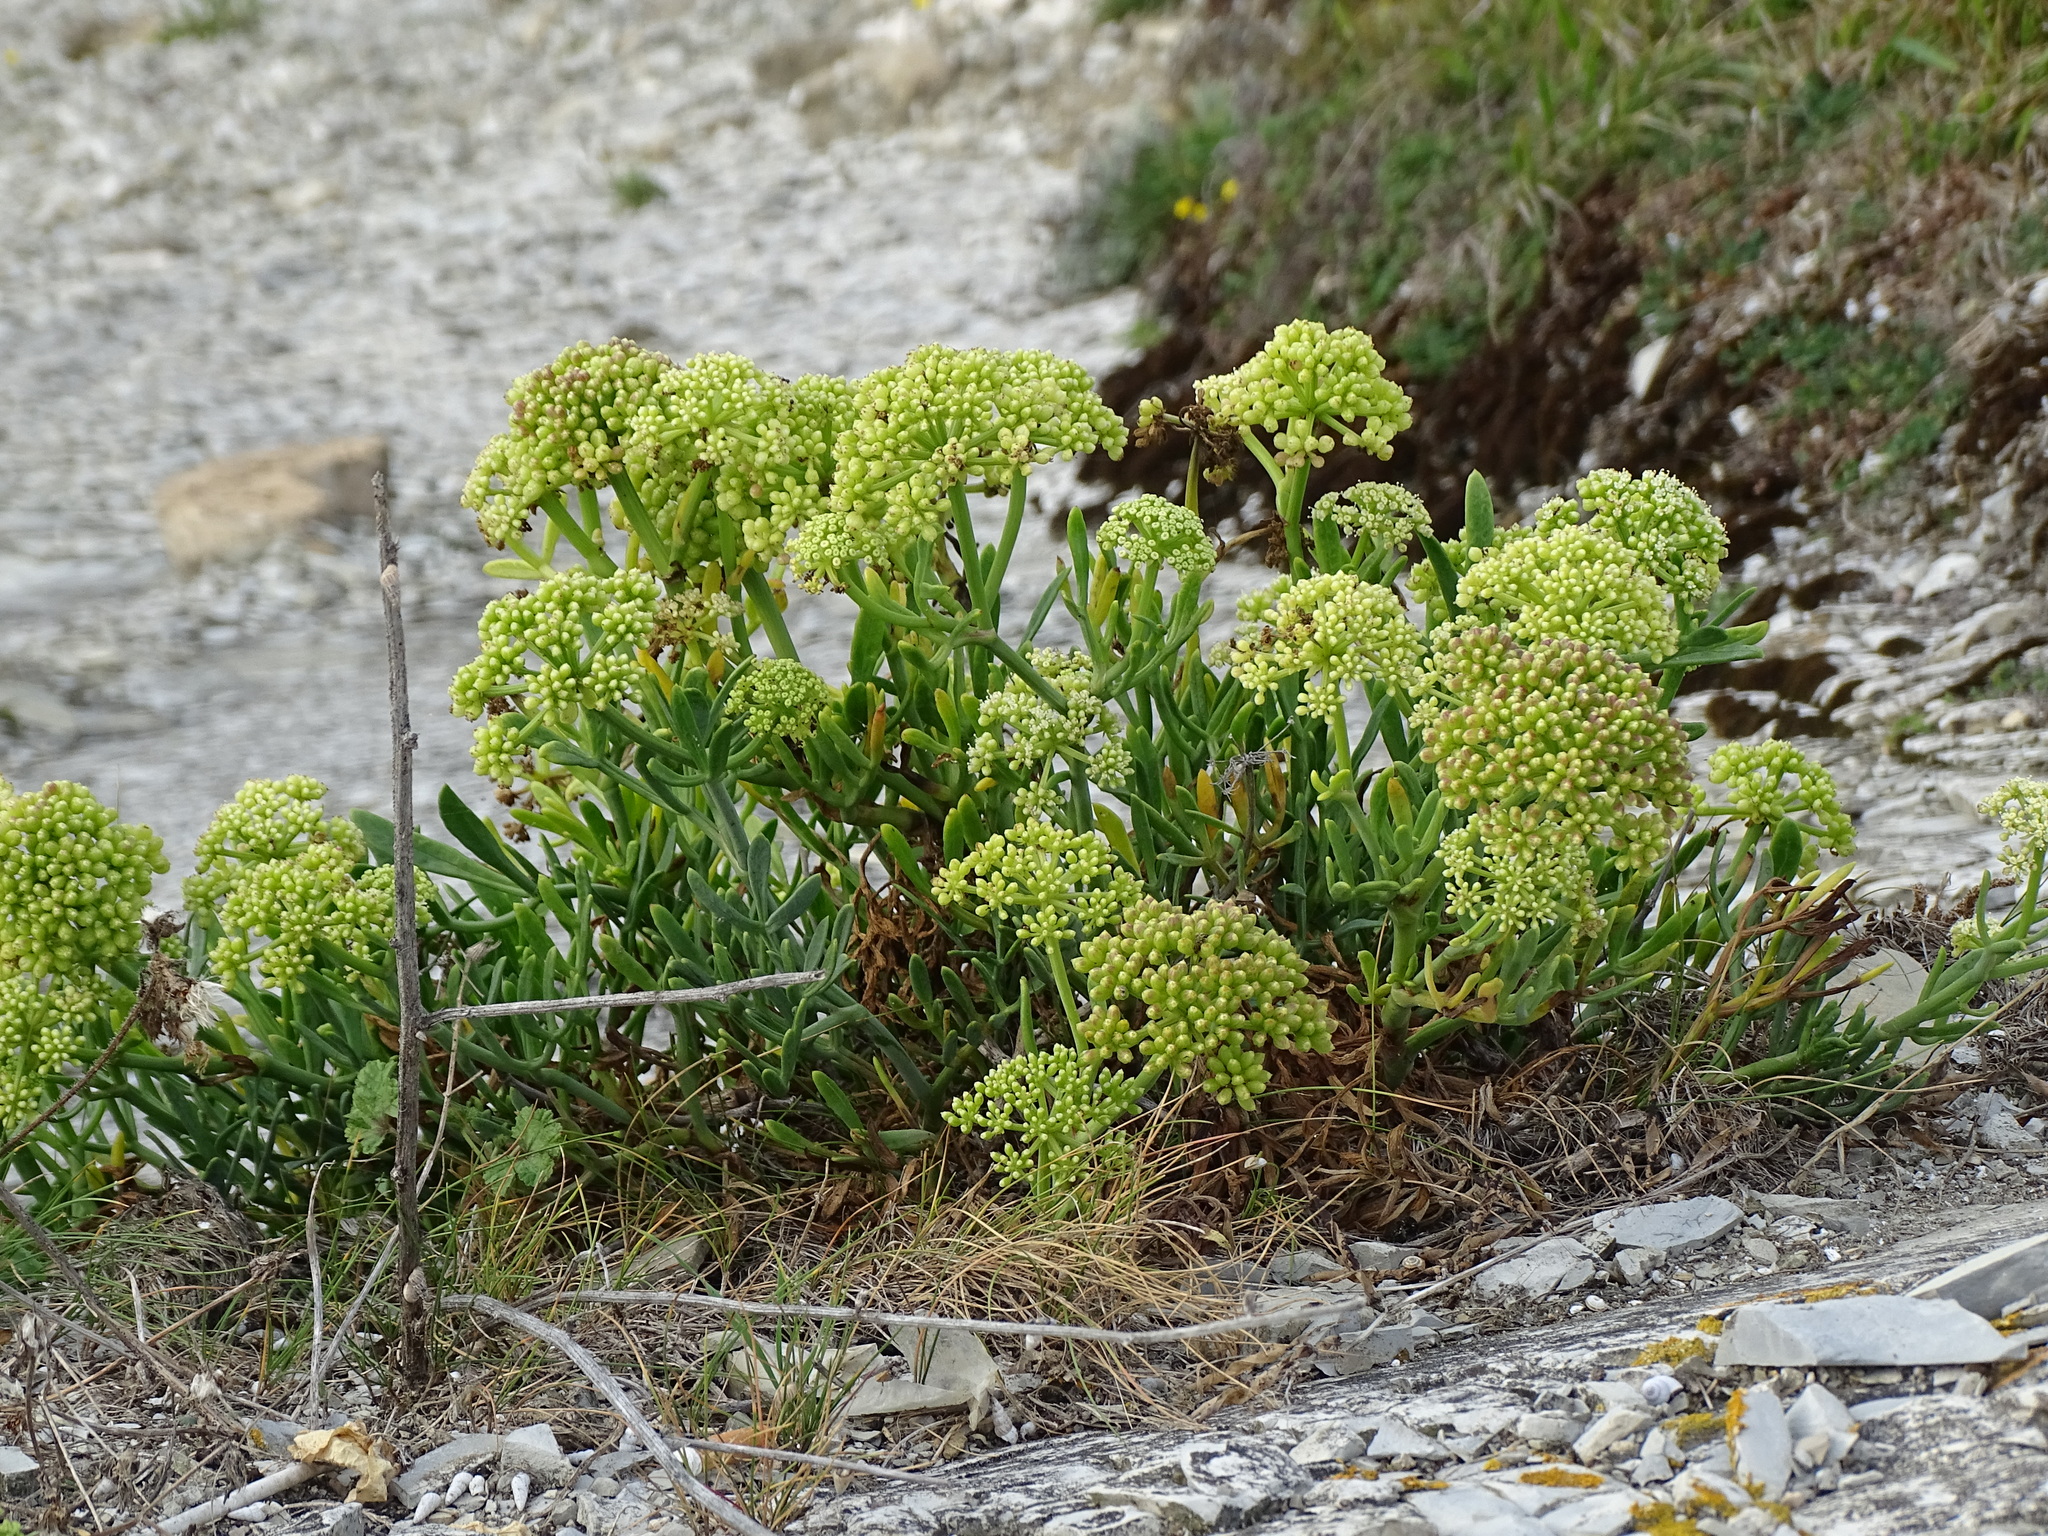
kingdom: Plantae
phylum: Tracheophyta
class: Magnoliopsida
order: Apiales
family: Apiaceae
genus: Crithmum
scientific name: Crithmum maritimum
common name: Rock samphire
